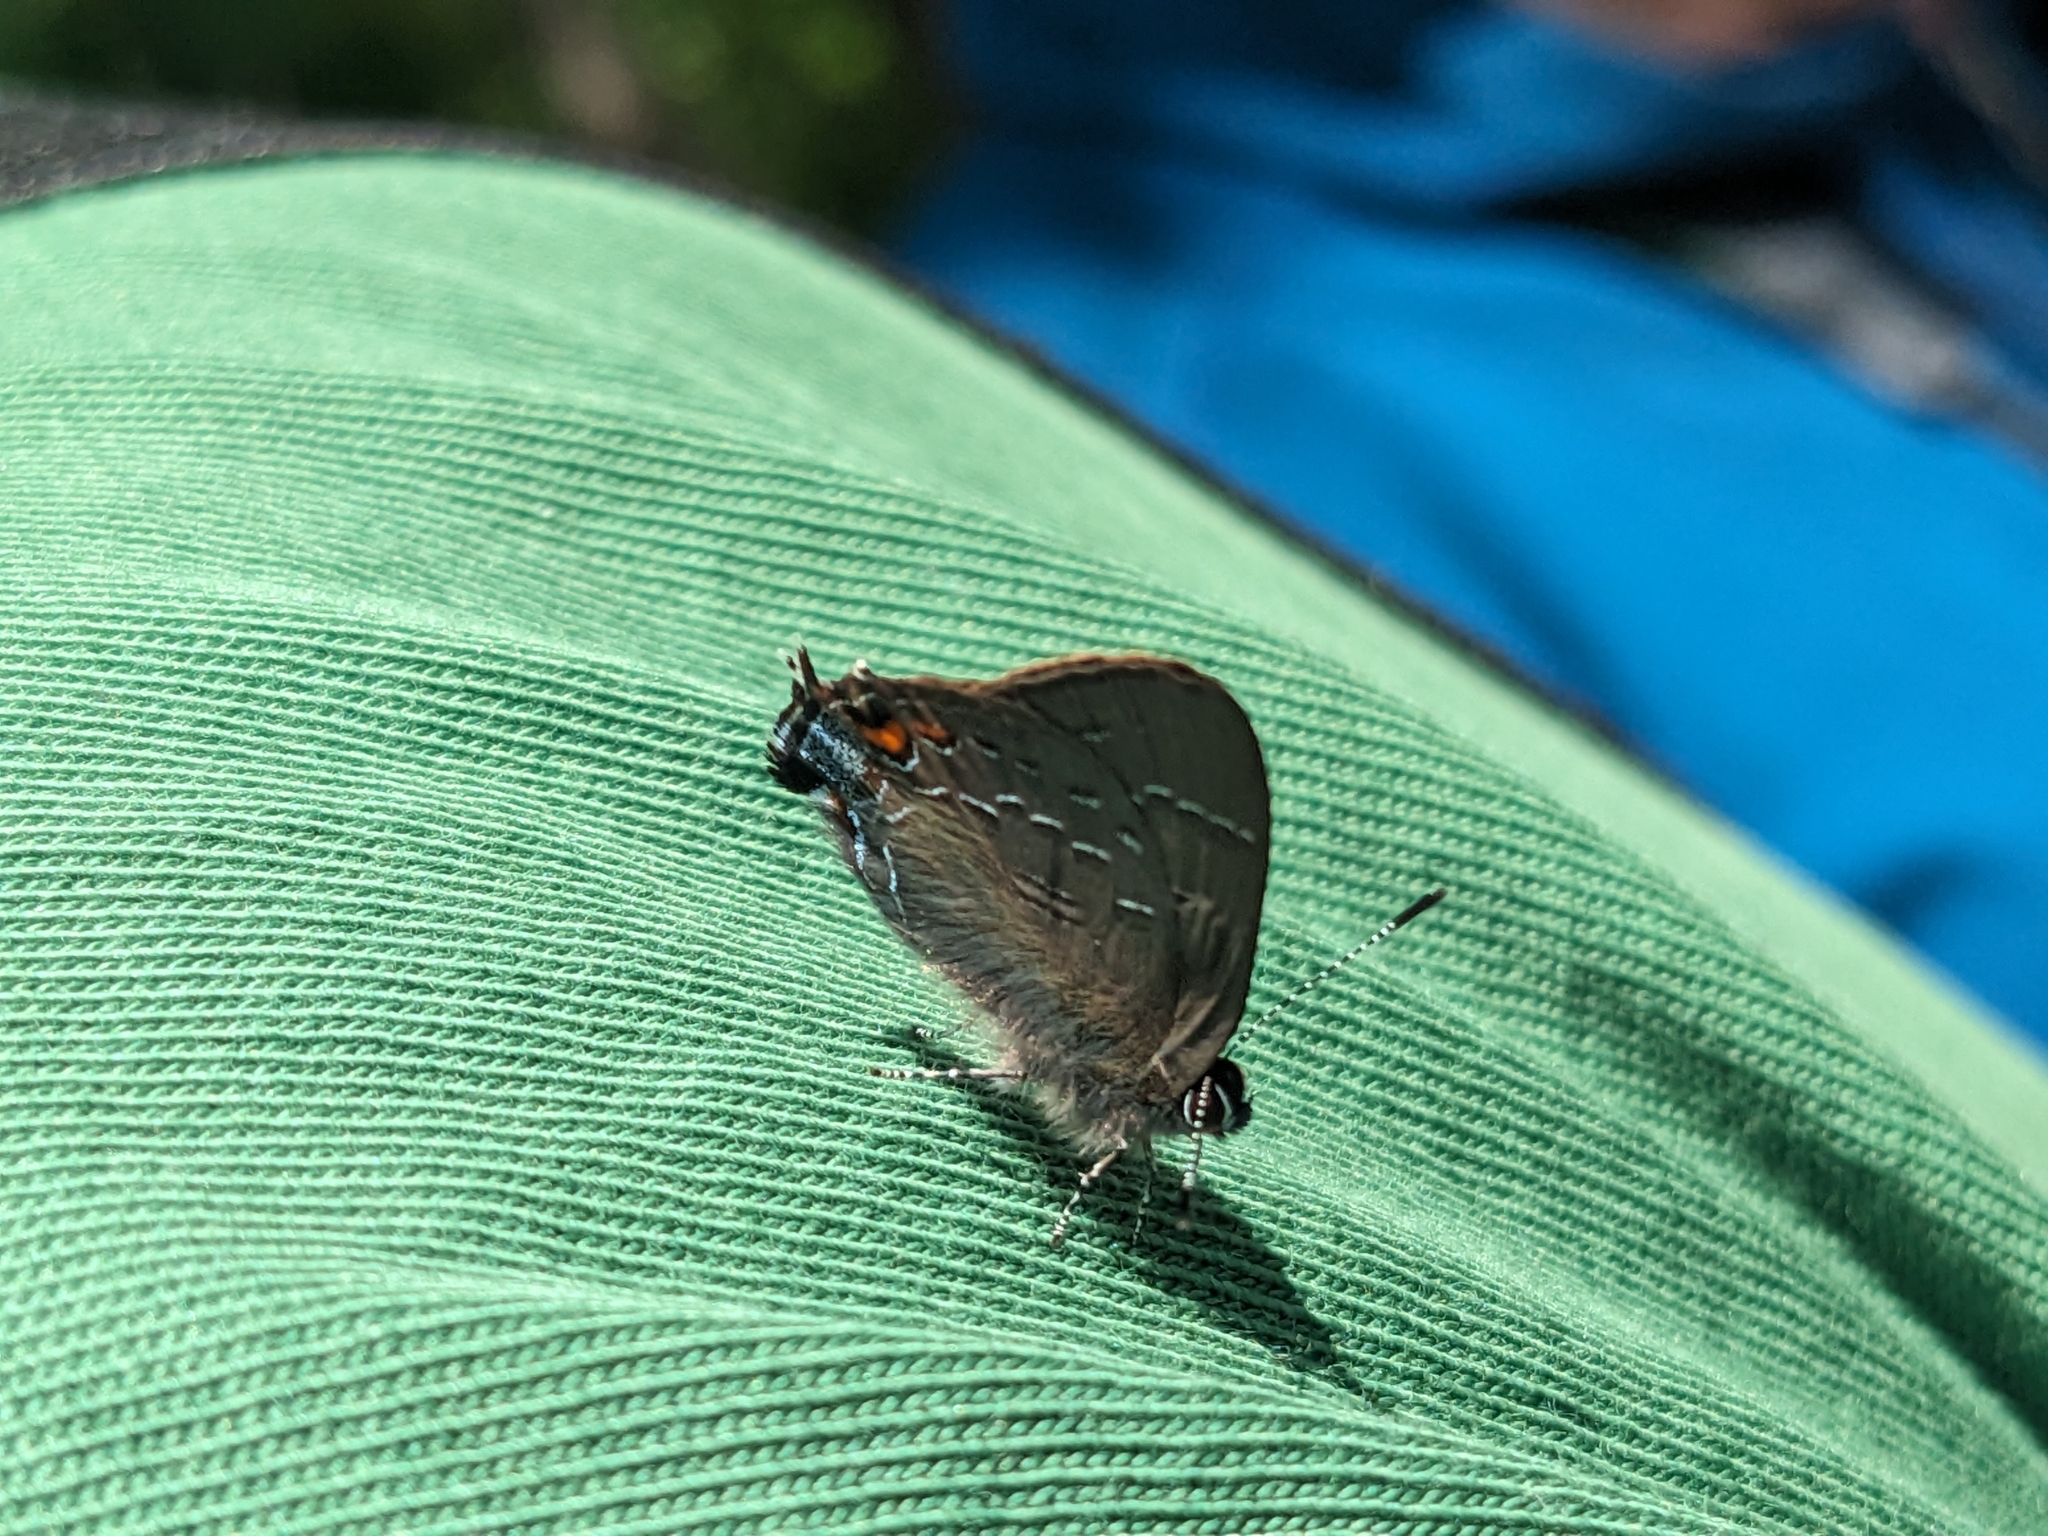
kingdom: Animalia
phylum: Arthropoda
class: Insecta
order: Lepidoptera
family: Lycaenidae
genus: Satyrium
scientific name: Satyrium calanus
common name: Banded hairstreak
